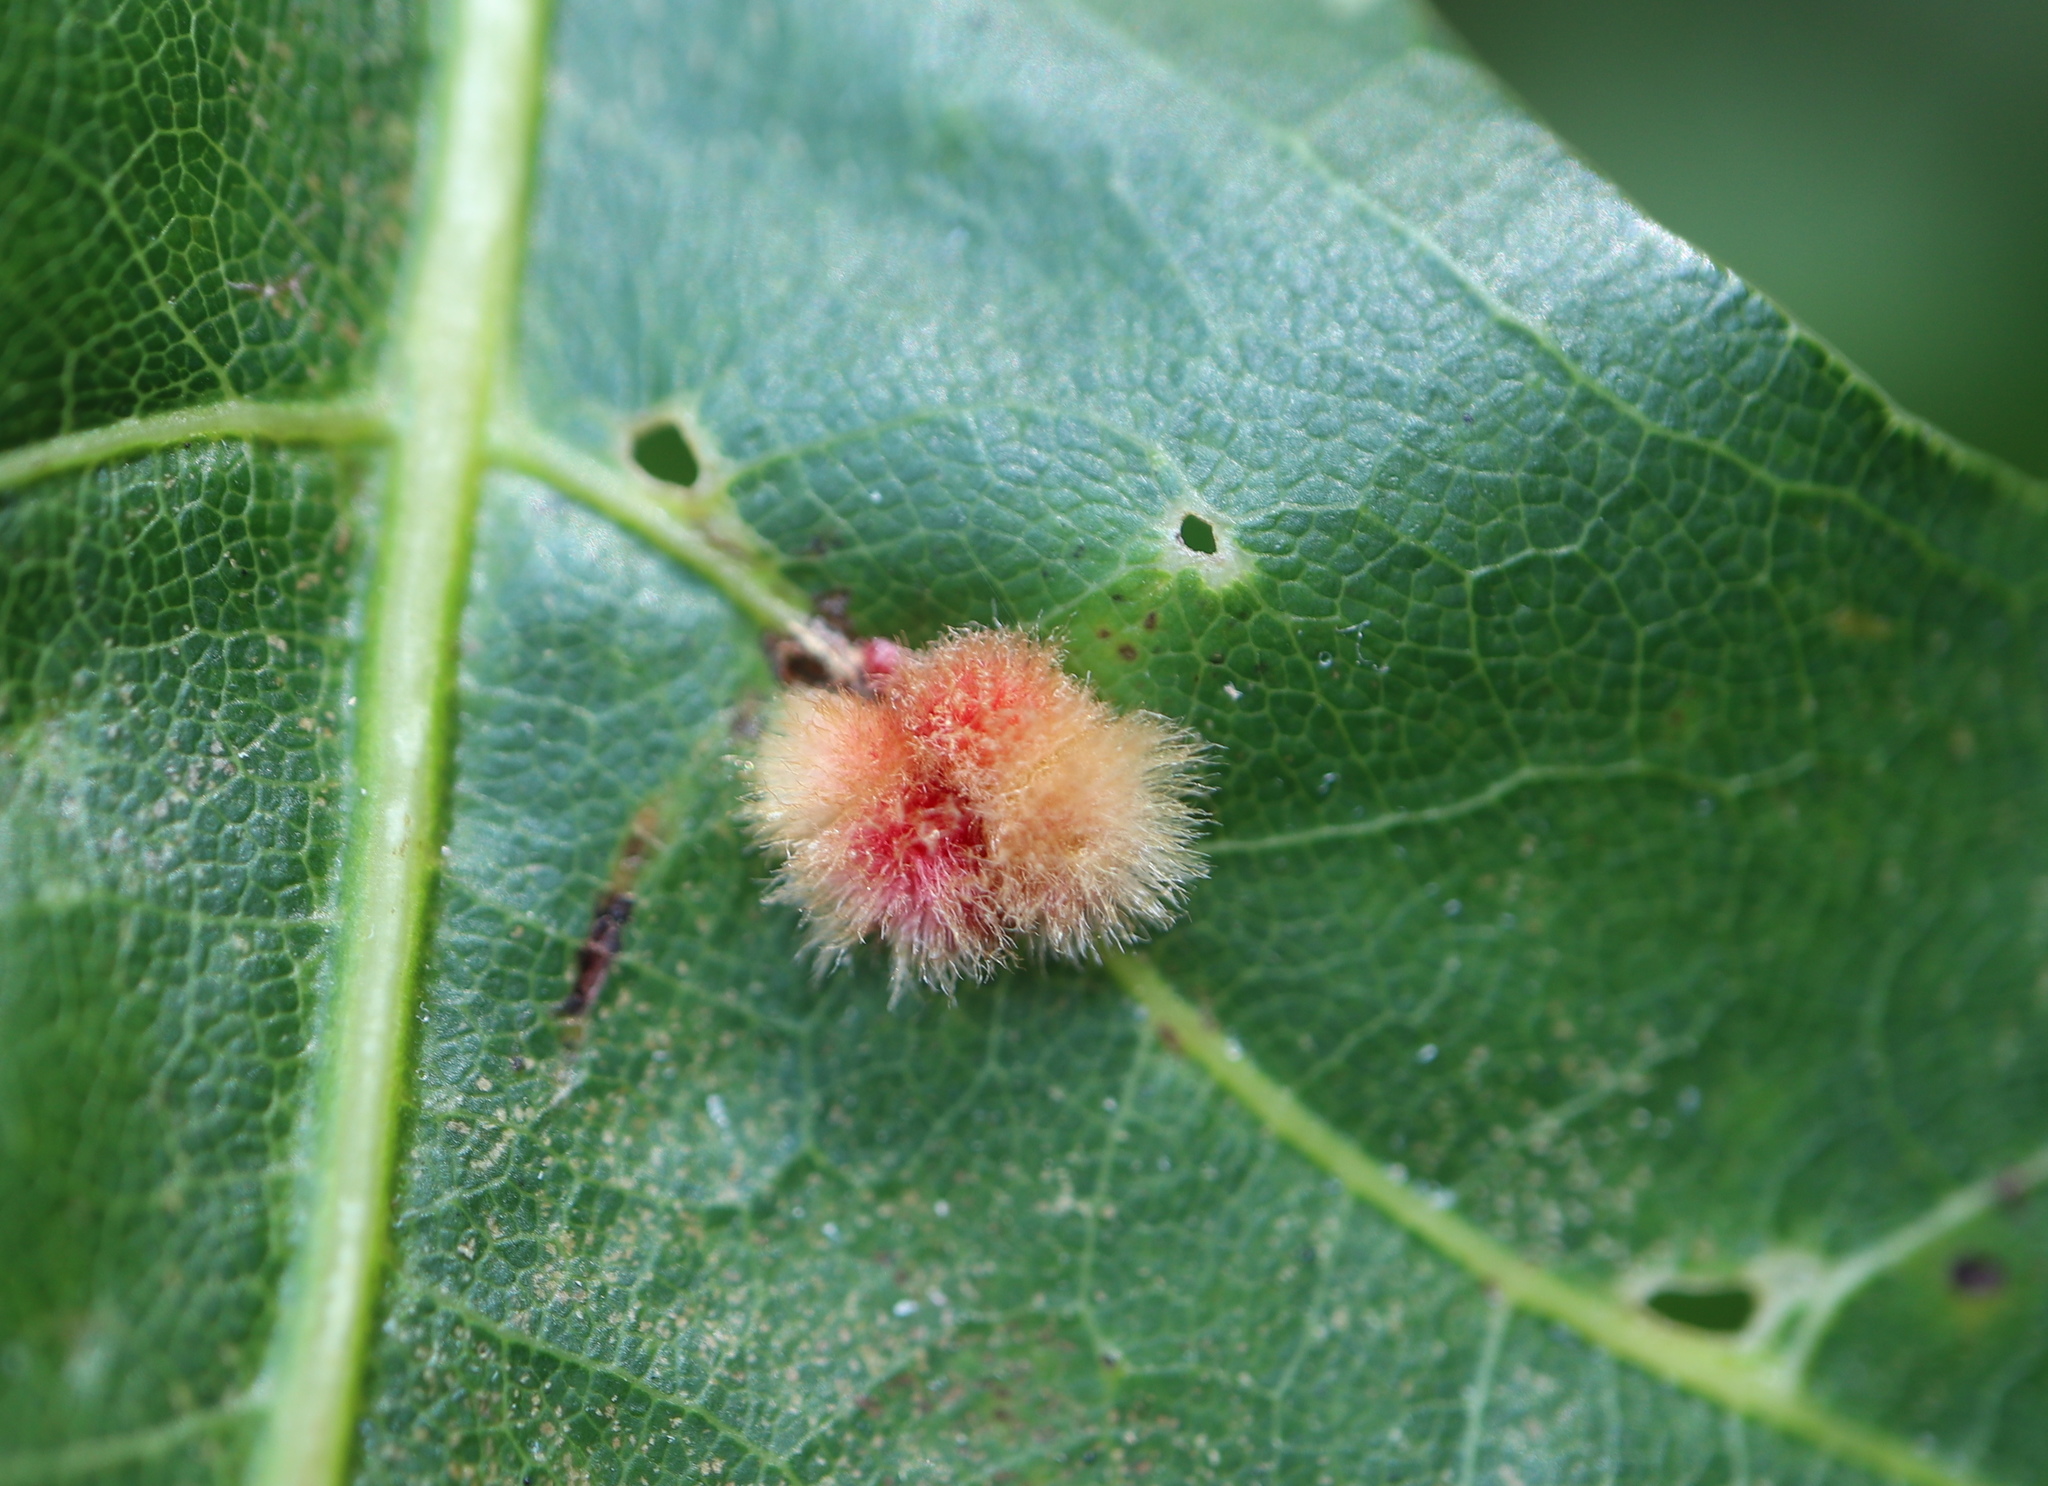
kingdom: Animalia
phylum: Arthropoda
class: Insecta
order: Hymenoptera
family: Cynipidae
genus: Callirhytis
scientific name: Callirhytis
